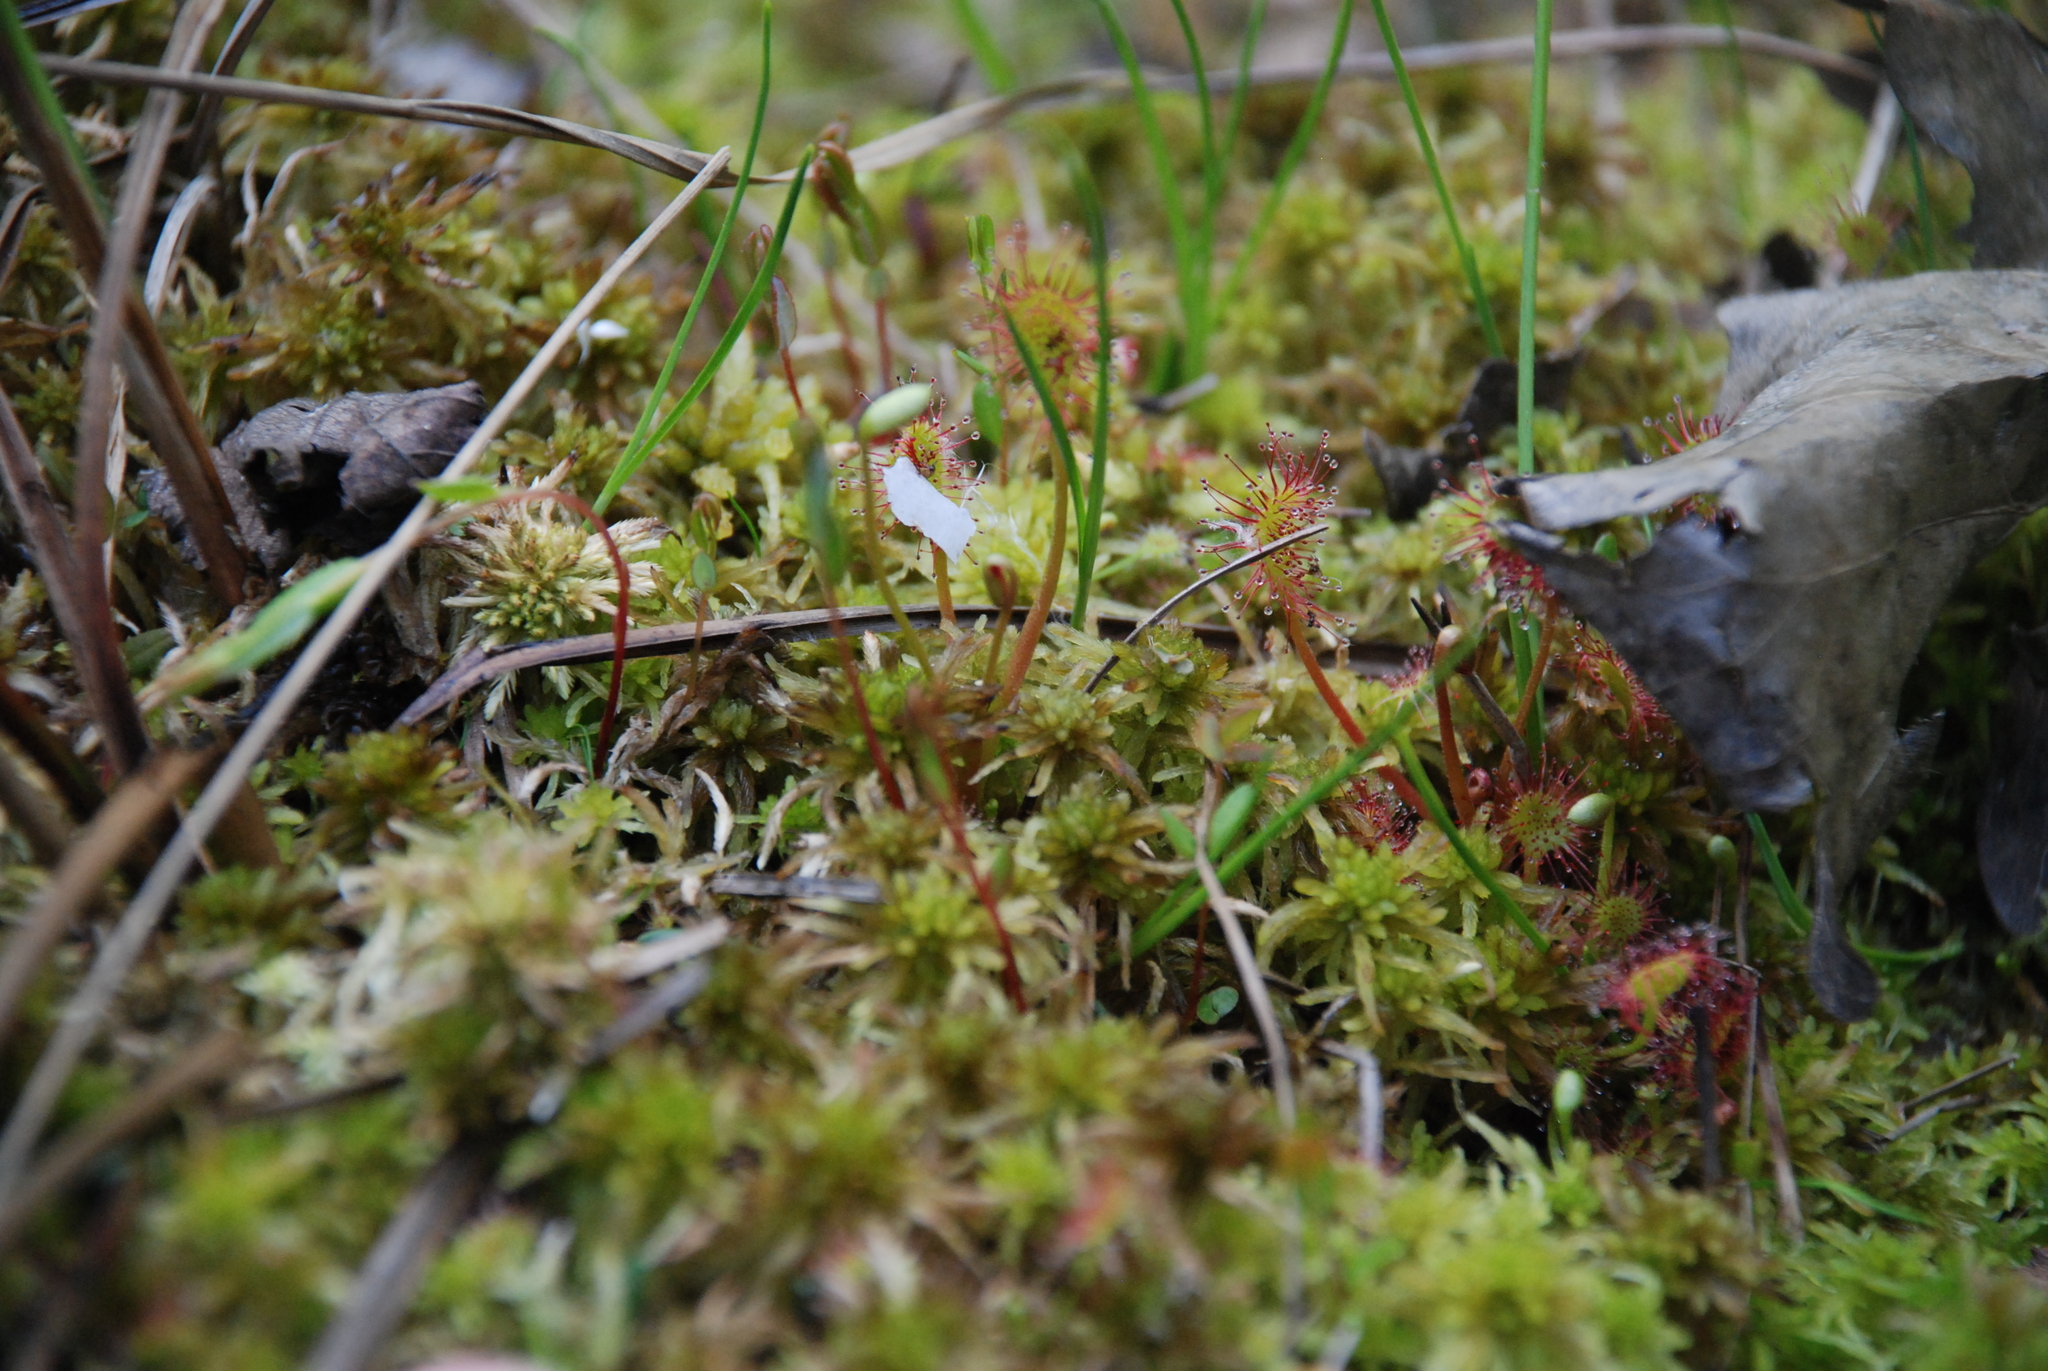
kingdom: Plantae
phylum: Tracheophyta
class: Magnoliopsida
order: Caryophyllales
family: Droseraceae
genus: Drosera
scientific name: Drosera obovata
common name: Ivan's paddle
